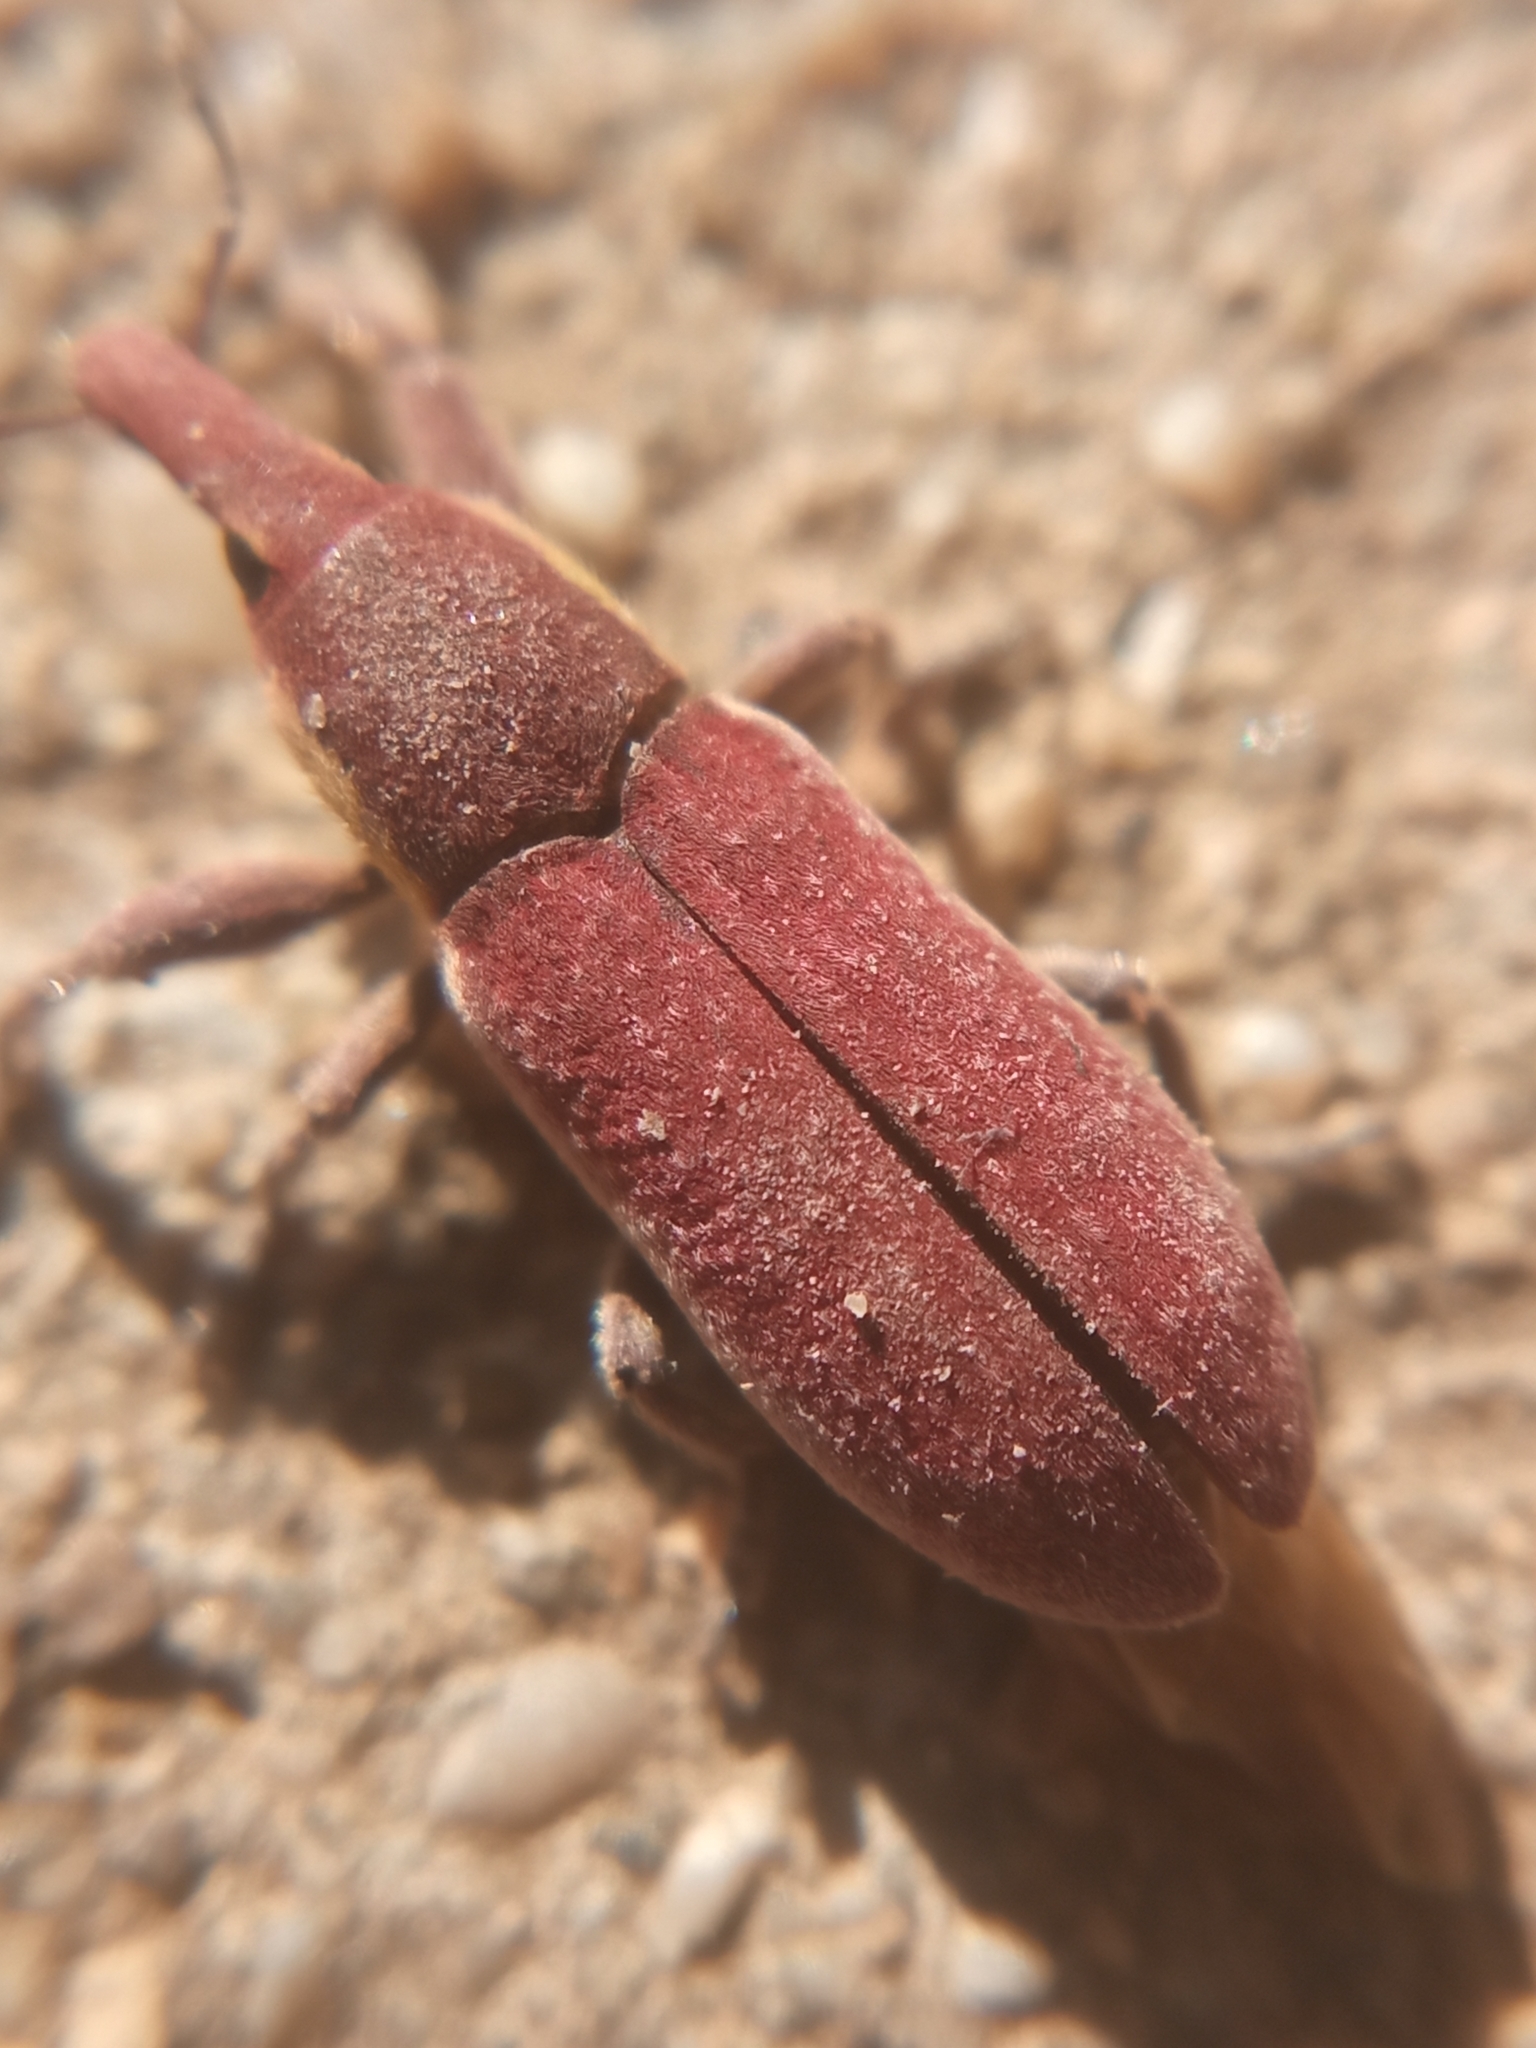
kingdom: Animalia
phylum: Arthropoda
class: Insecta
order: Coleoptera
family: Curculionidae
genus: Lixus
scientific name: Lixus vilis
